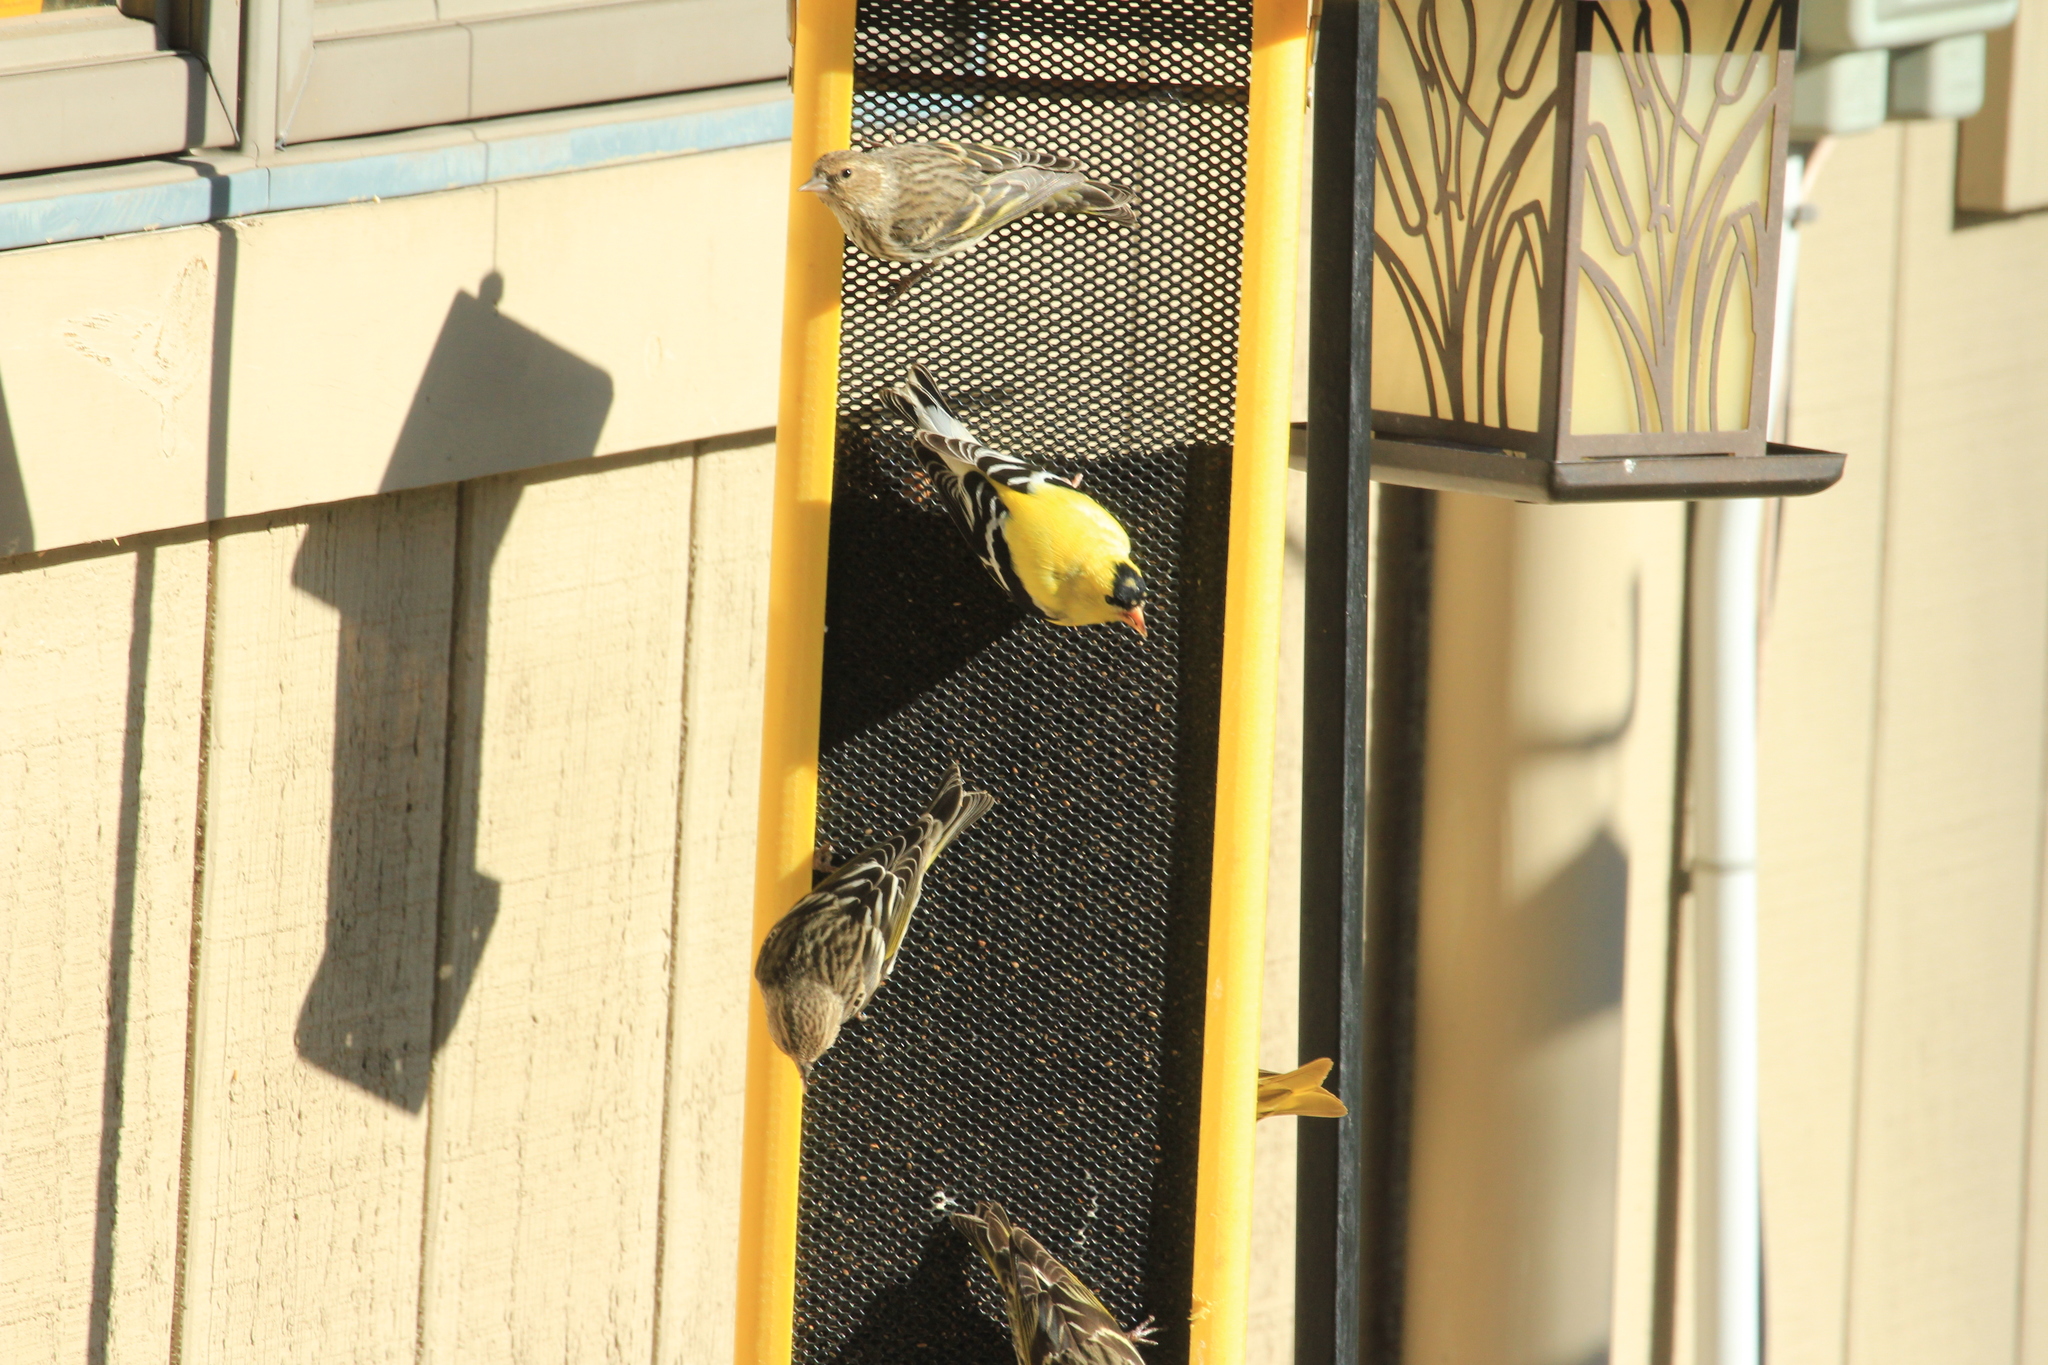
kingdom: Animalia
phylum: Chordata
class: Aves
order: Passeriformes
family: Fringillidae
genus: Spinus
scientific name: Spinus pinus
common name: Pine siskin
